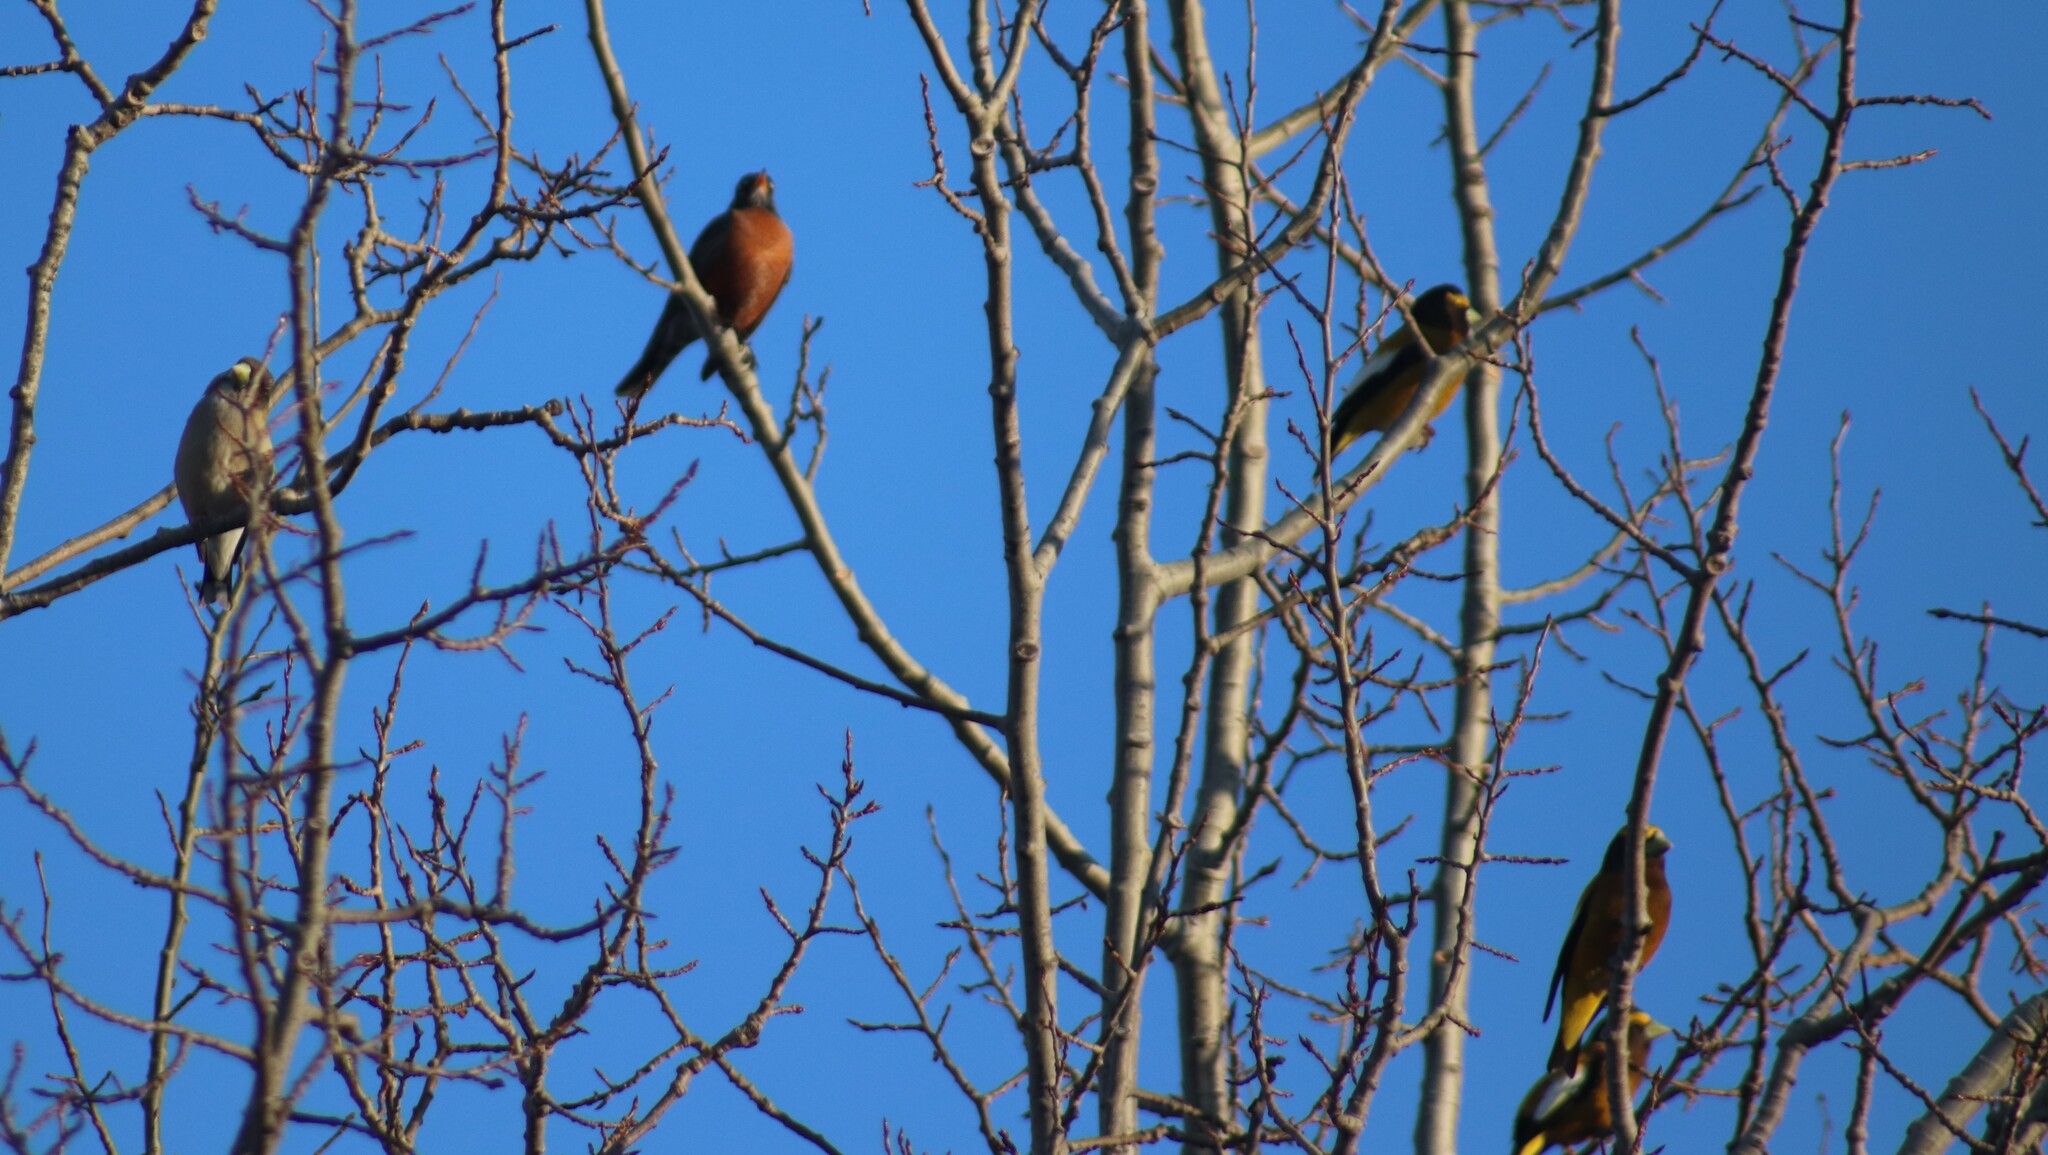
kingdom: Animalia
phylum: Chordata
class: Aves
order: Passeriformes
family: Turdidae
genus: Turdus
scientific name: Turdus migratorius
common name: American robin
